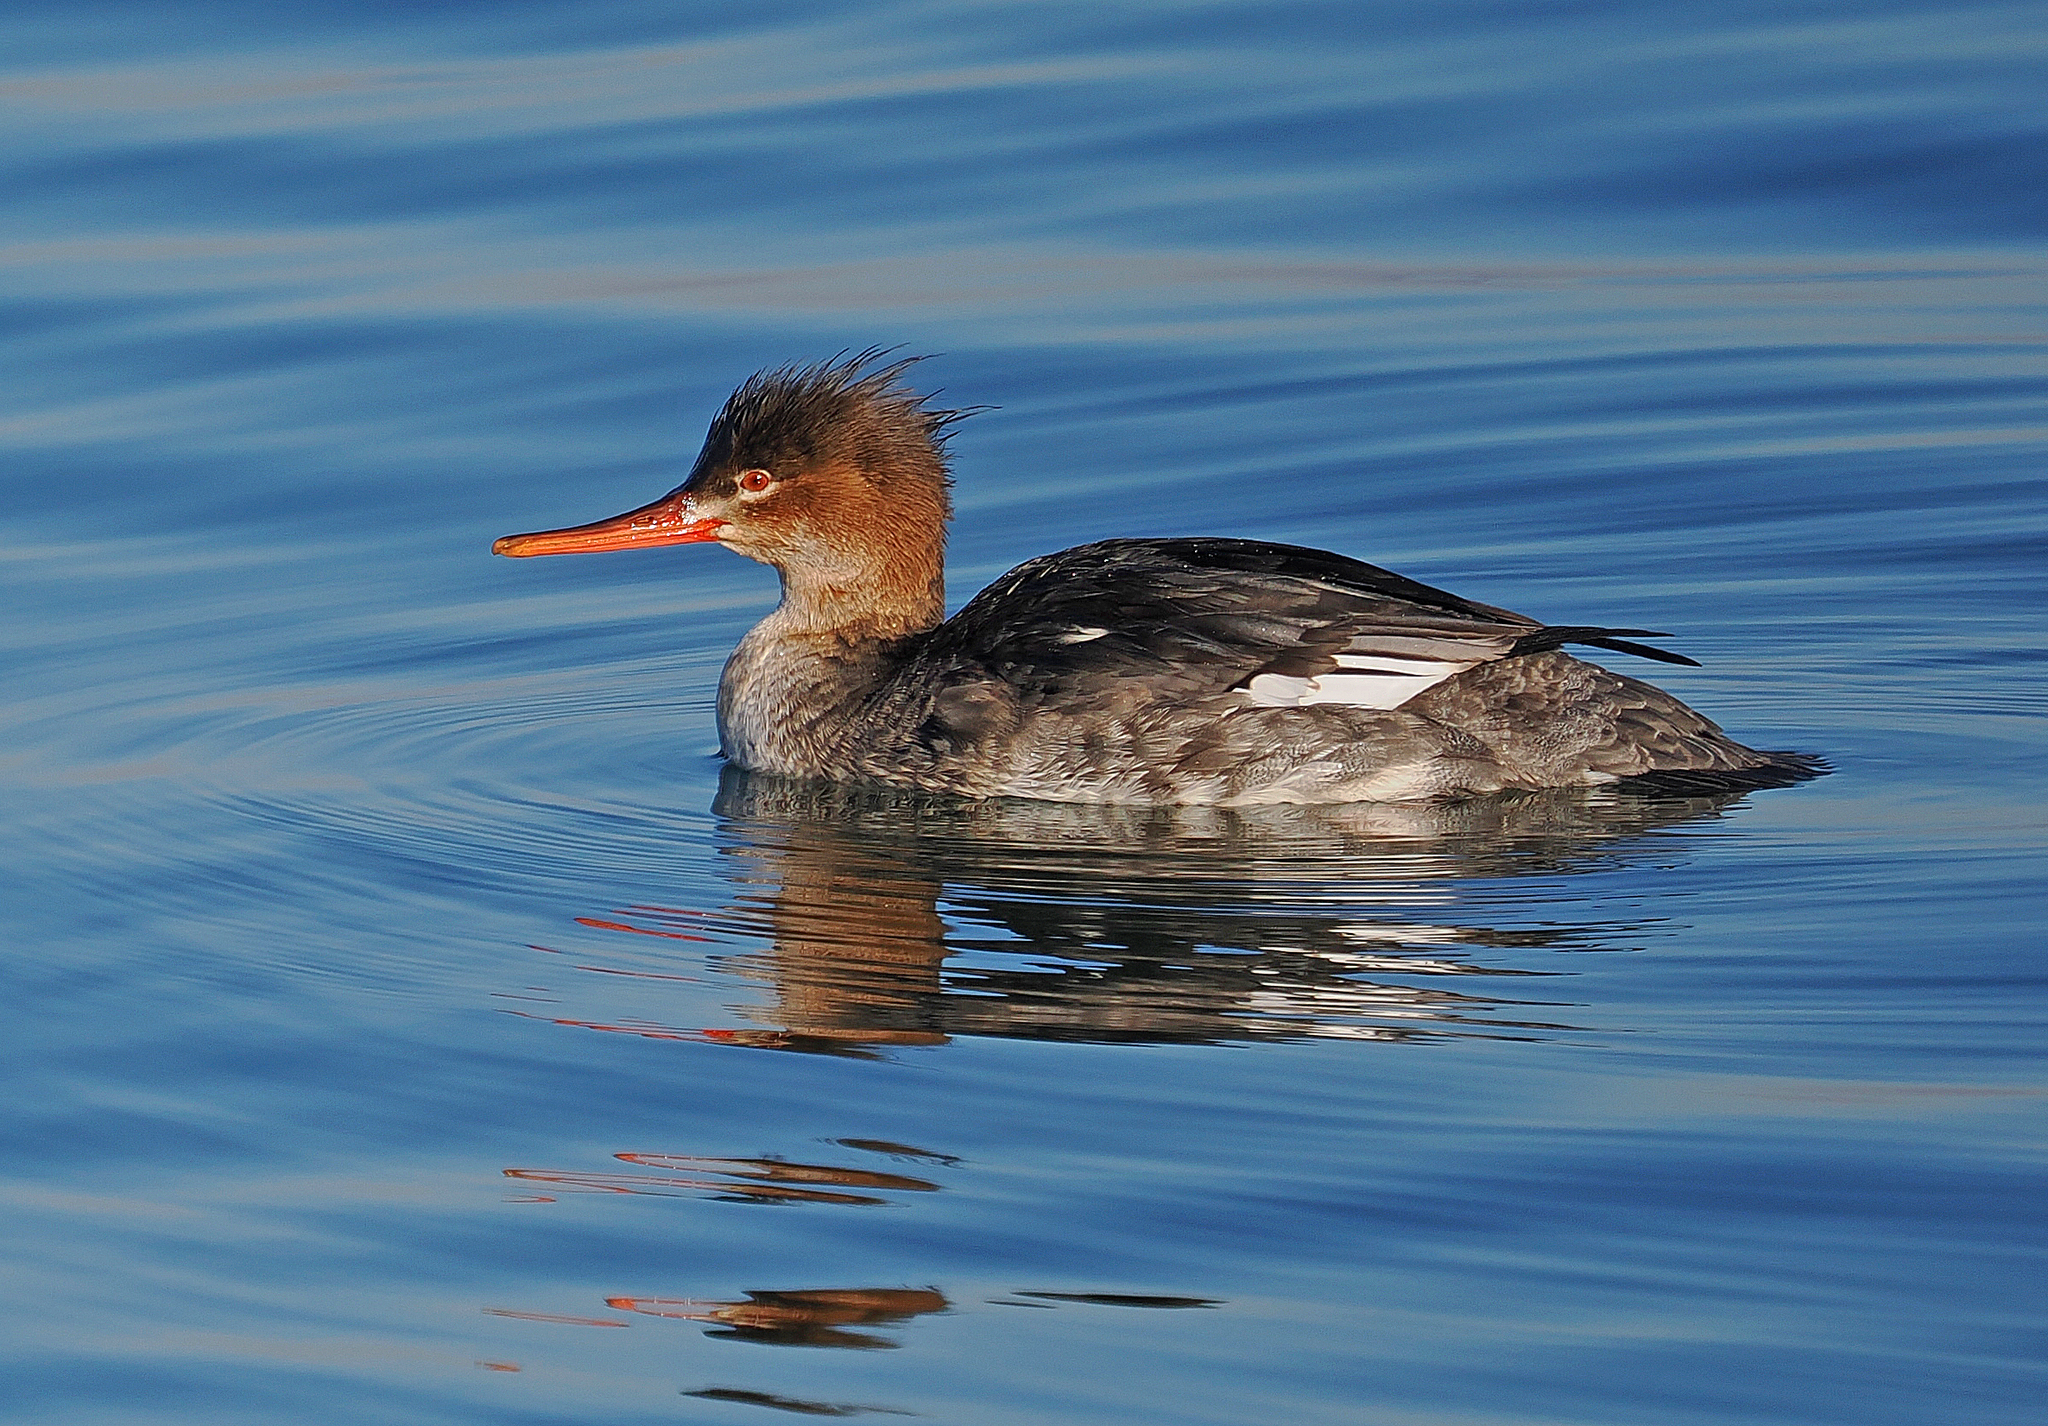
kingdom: Animalia
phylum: Chordata
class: Aves
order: Anseriformes
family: Anatidae
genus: Mergus
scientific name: Mergus serrator
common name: Red-breasted merganser
